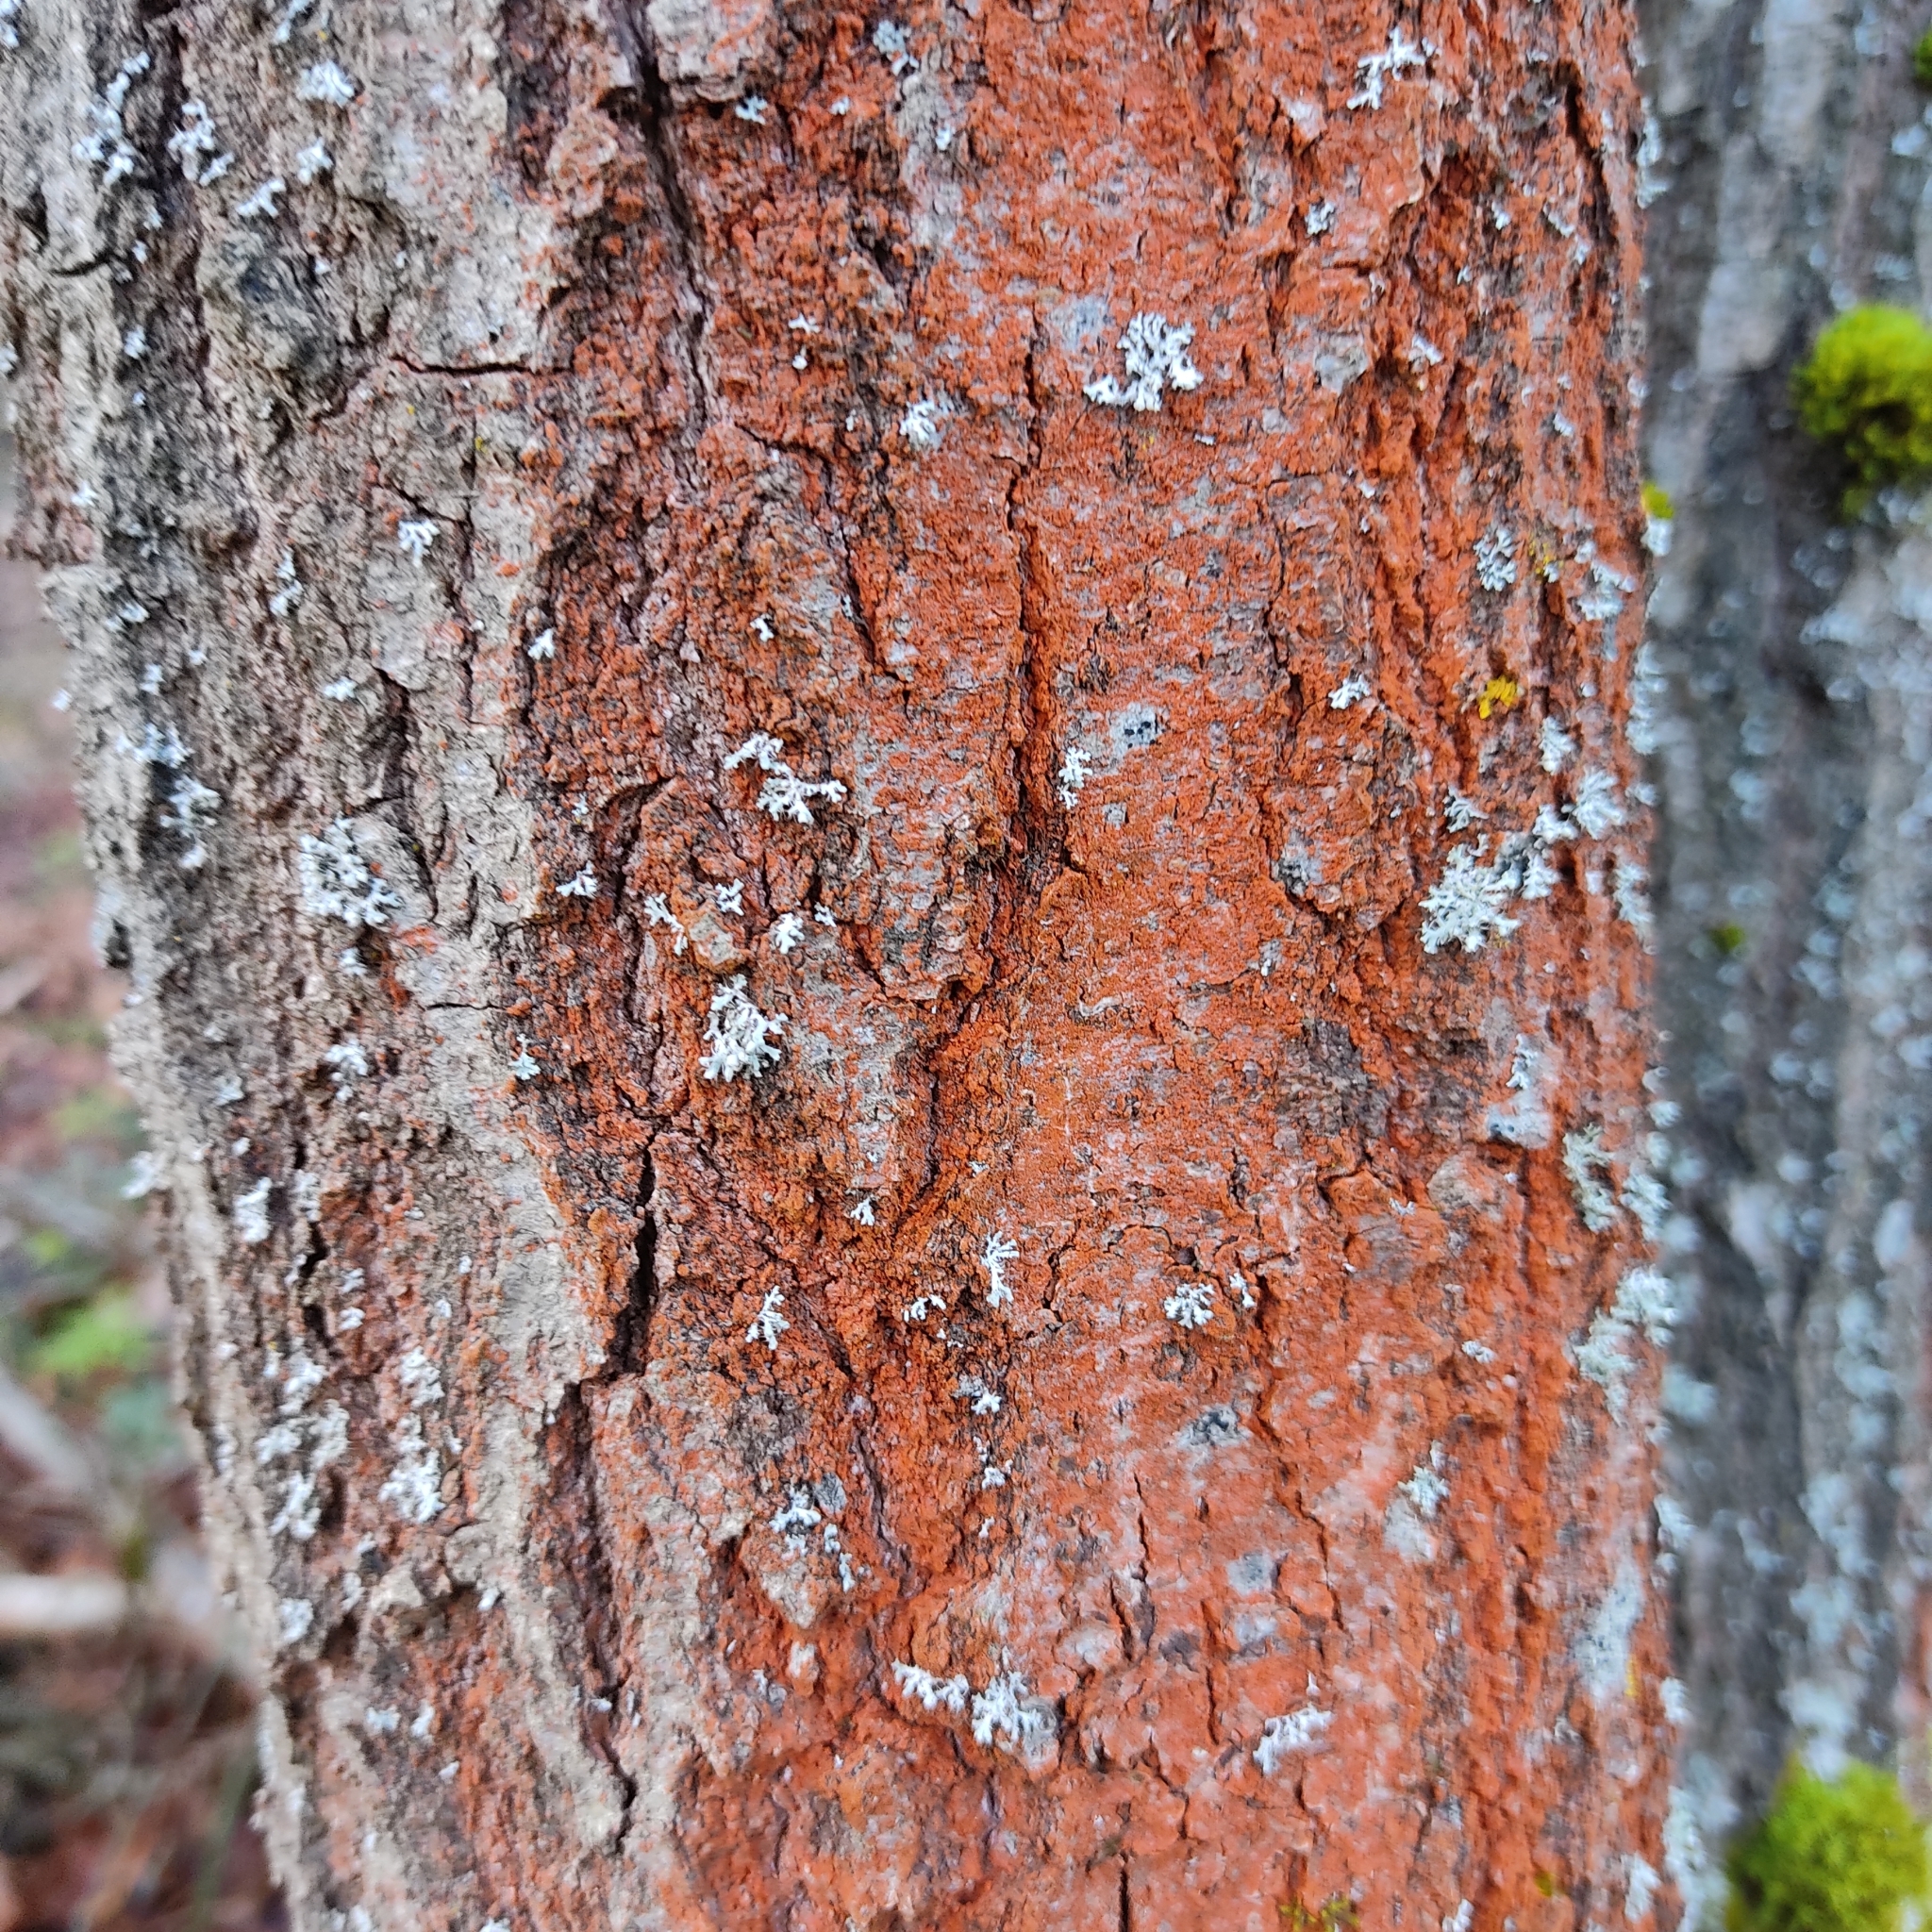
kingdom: Plantae
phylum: Chlorophyta
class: Ulvophyceae
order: Trentepohliales
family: Trentepohliaceae
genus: Trentepohlia
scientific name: Trentepohlia umbrina
